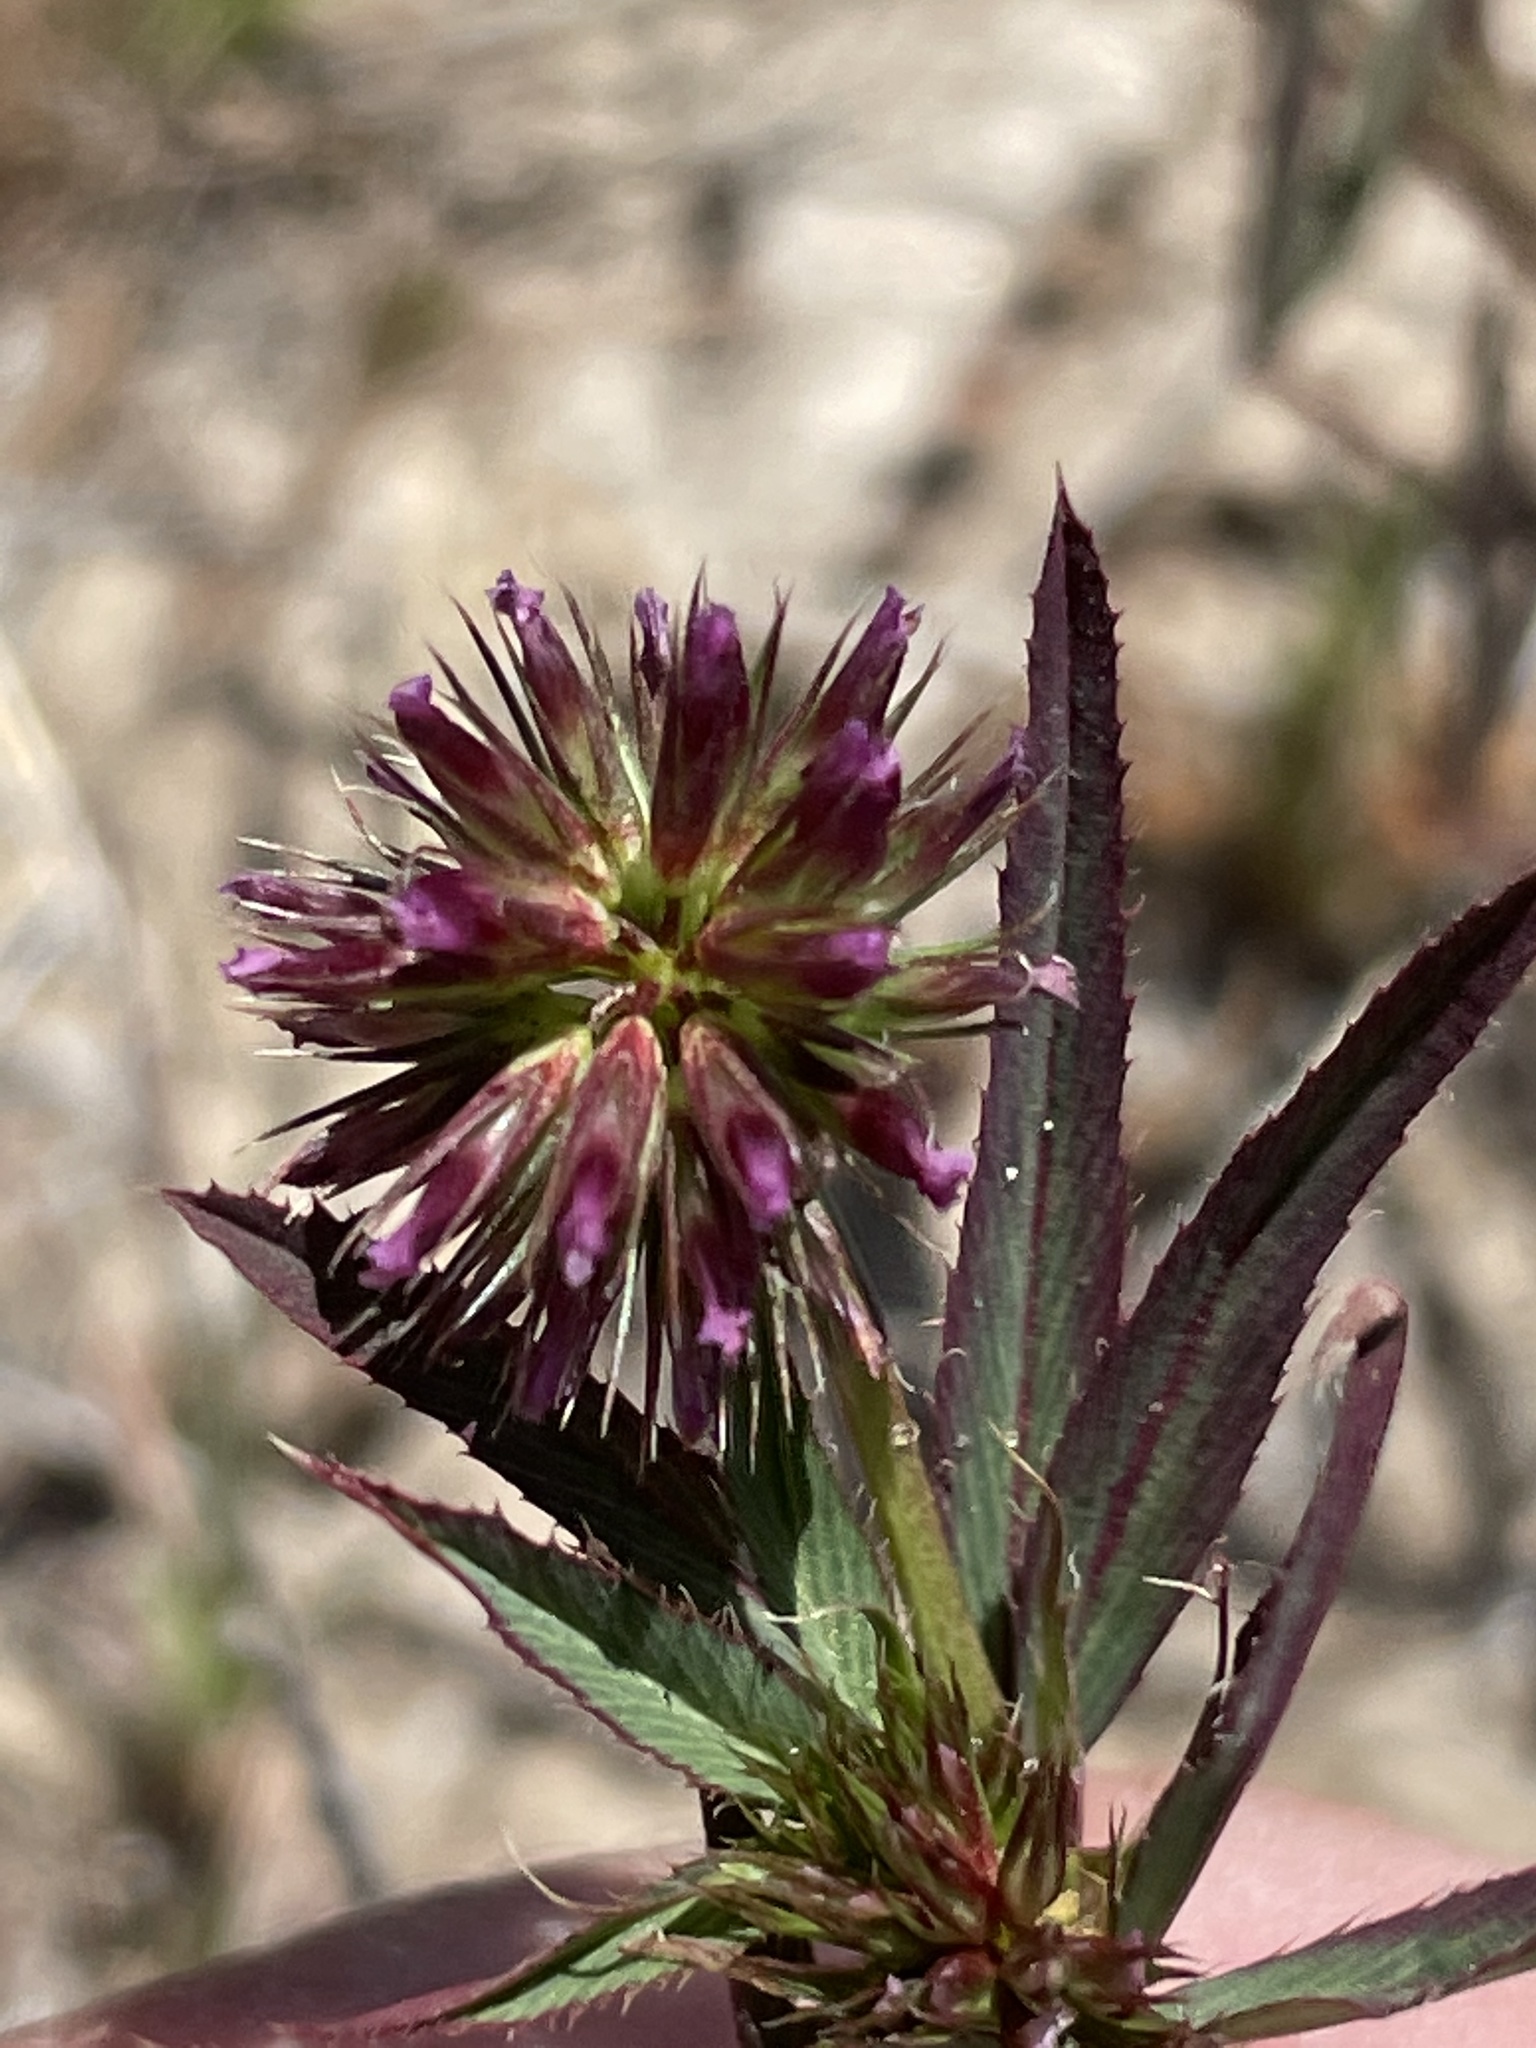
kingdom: Plantae
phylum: Tracheophyta
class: Magnoliopsida
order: Fabales
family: Fabaceae
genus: Trifolium
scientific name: Trifolium palmeri
